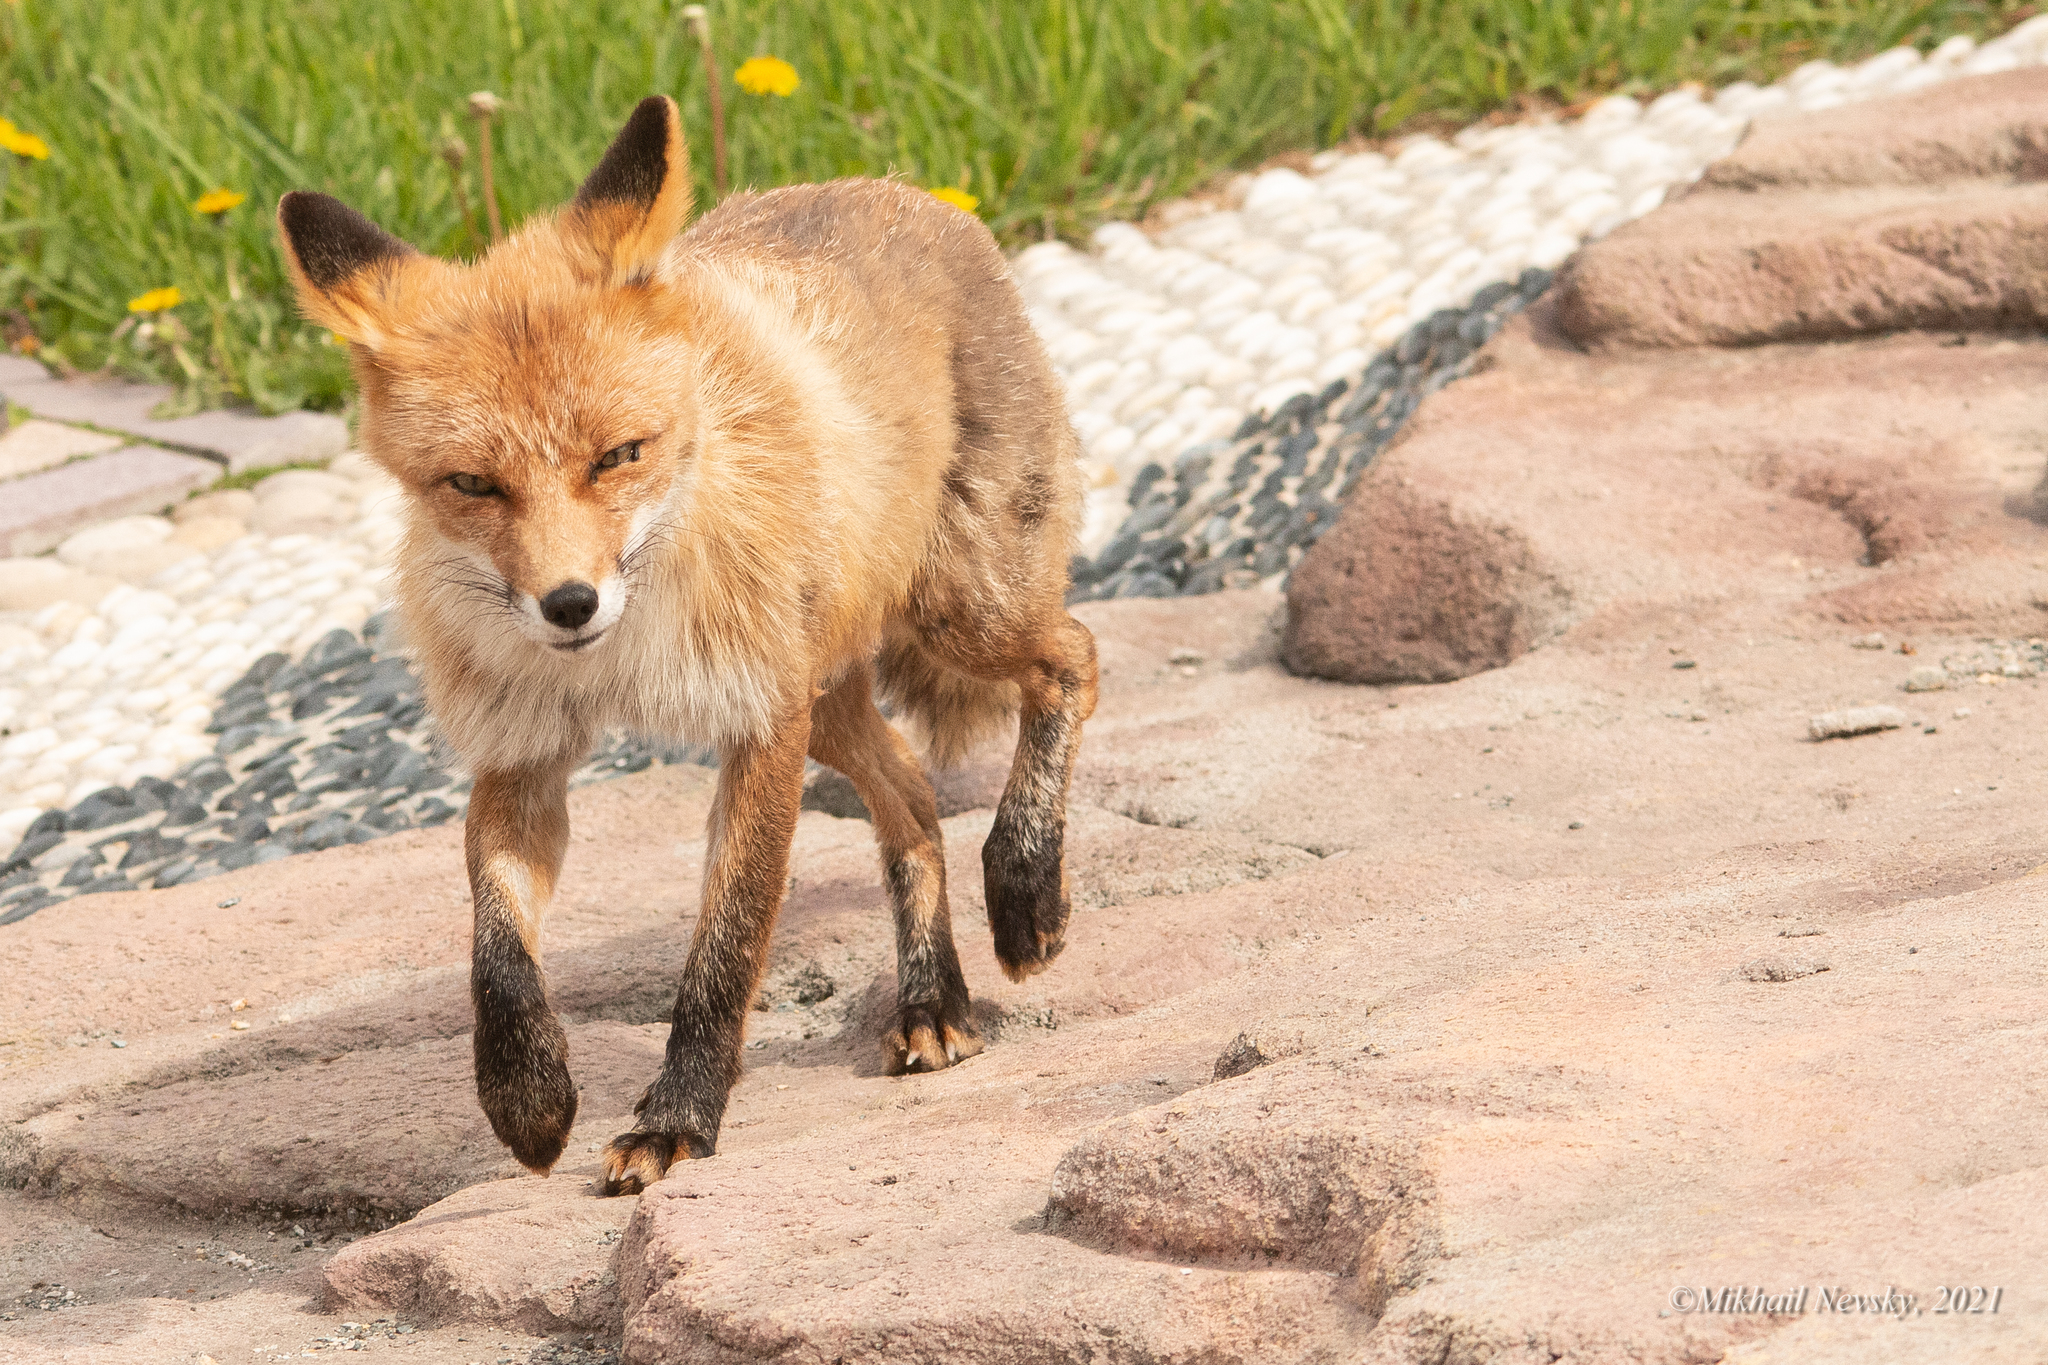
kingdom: Animalia
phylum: Chordata
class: Mammalia
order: Carnivora
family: Canidae
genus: Vulpes
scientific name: Vulpes vulpes
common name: Red fox
